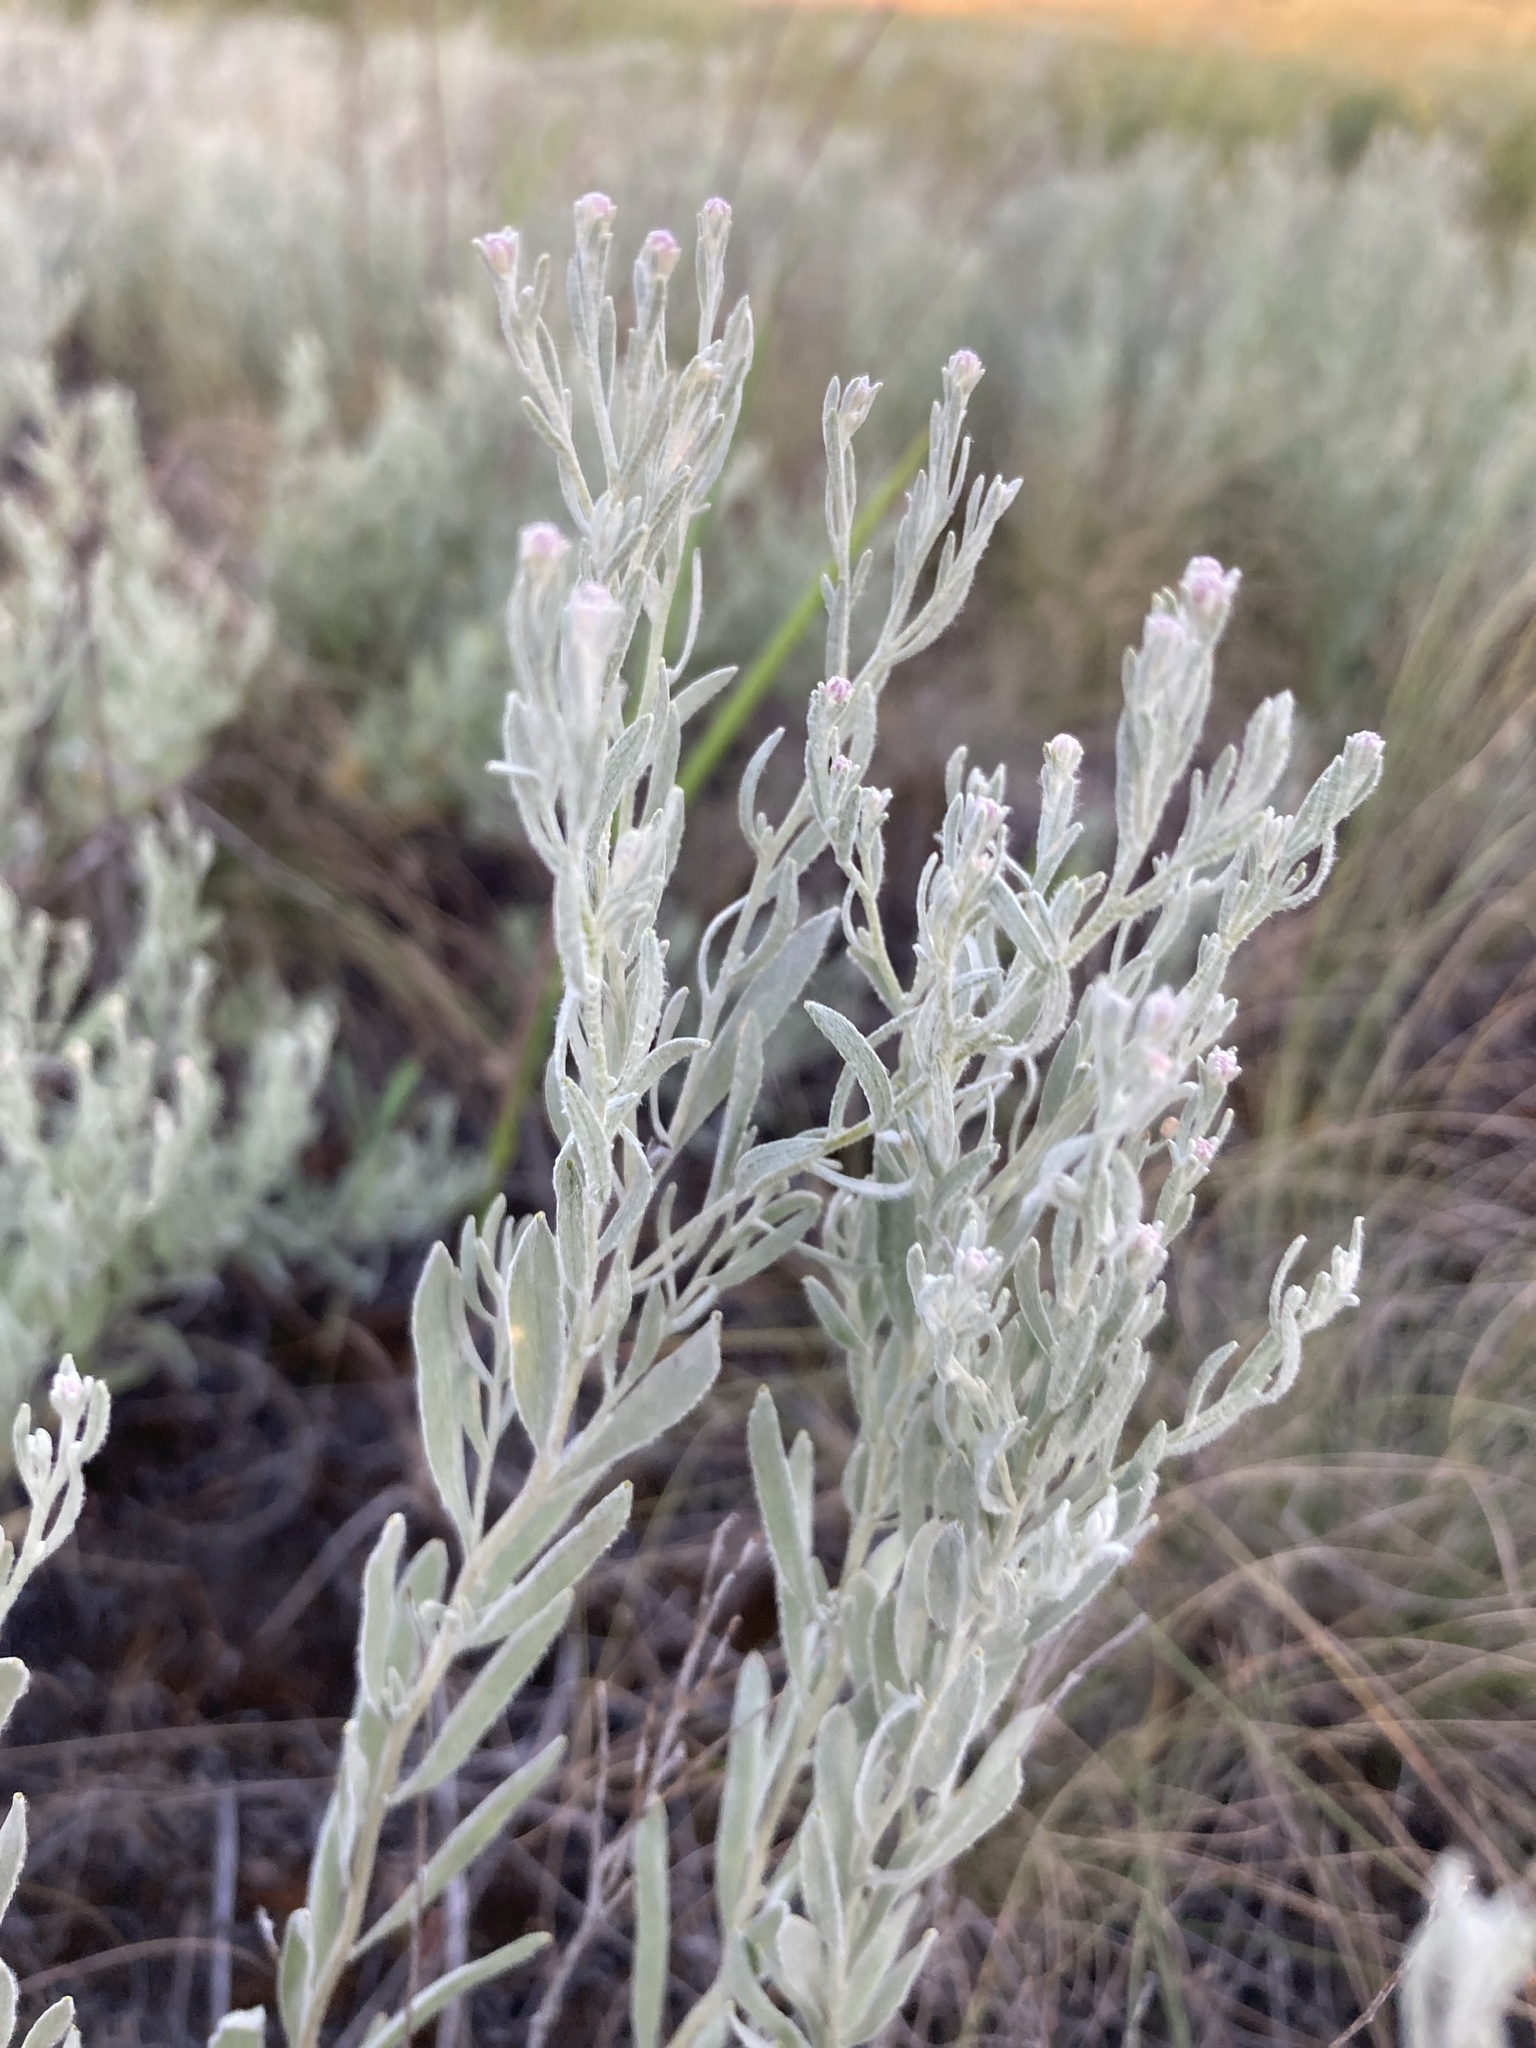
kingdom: Plantae
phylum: Tracheophyta
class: Magnoliopsida
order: Asterales
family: Asteraceae
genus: Galatella
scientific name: Galatella villosa
